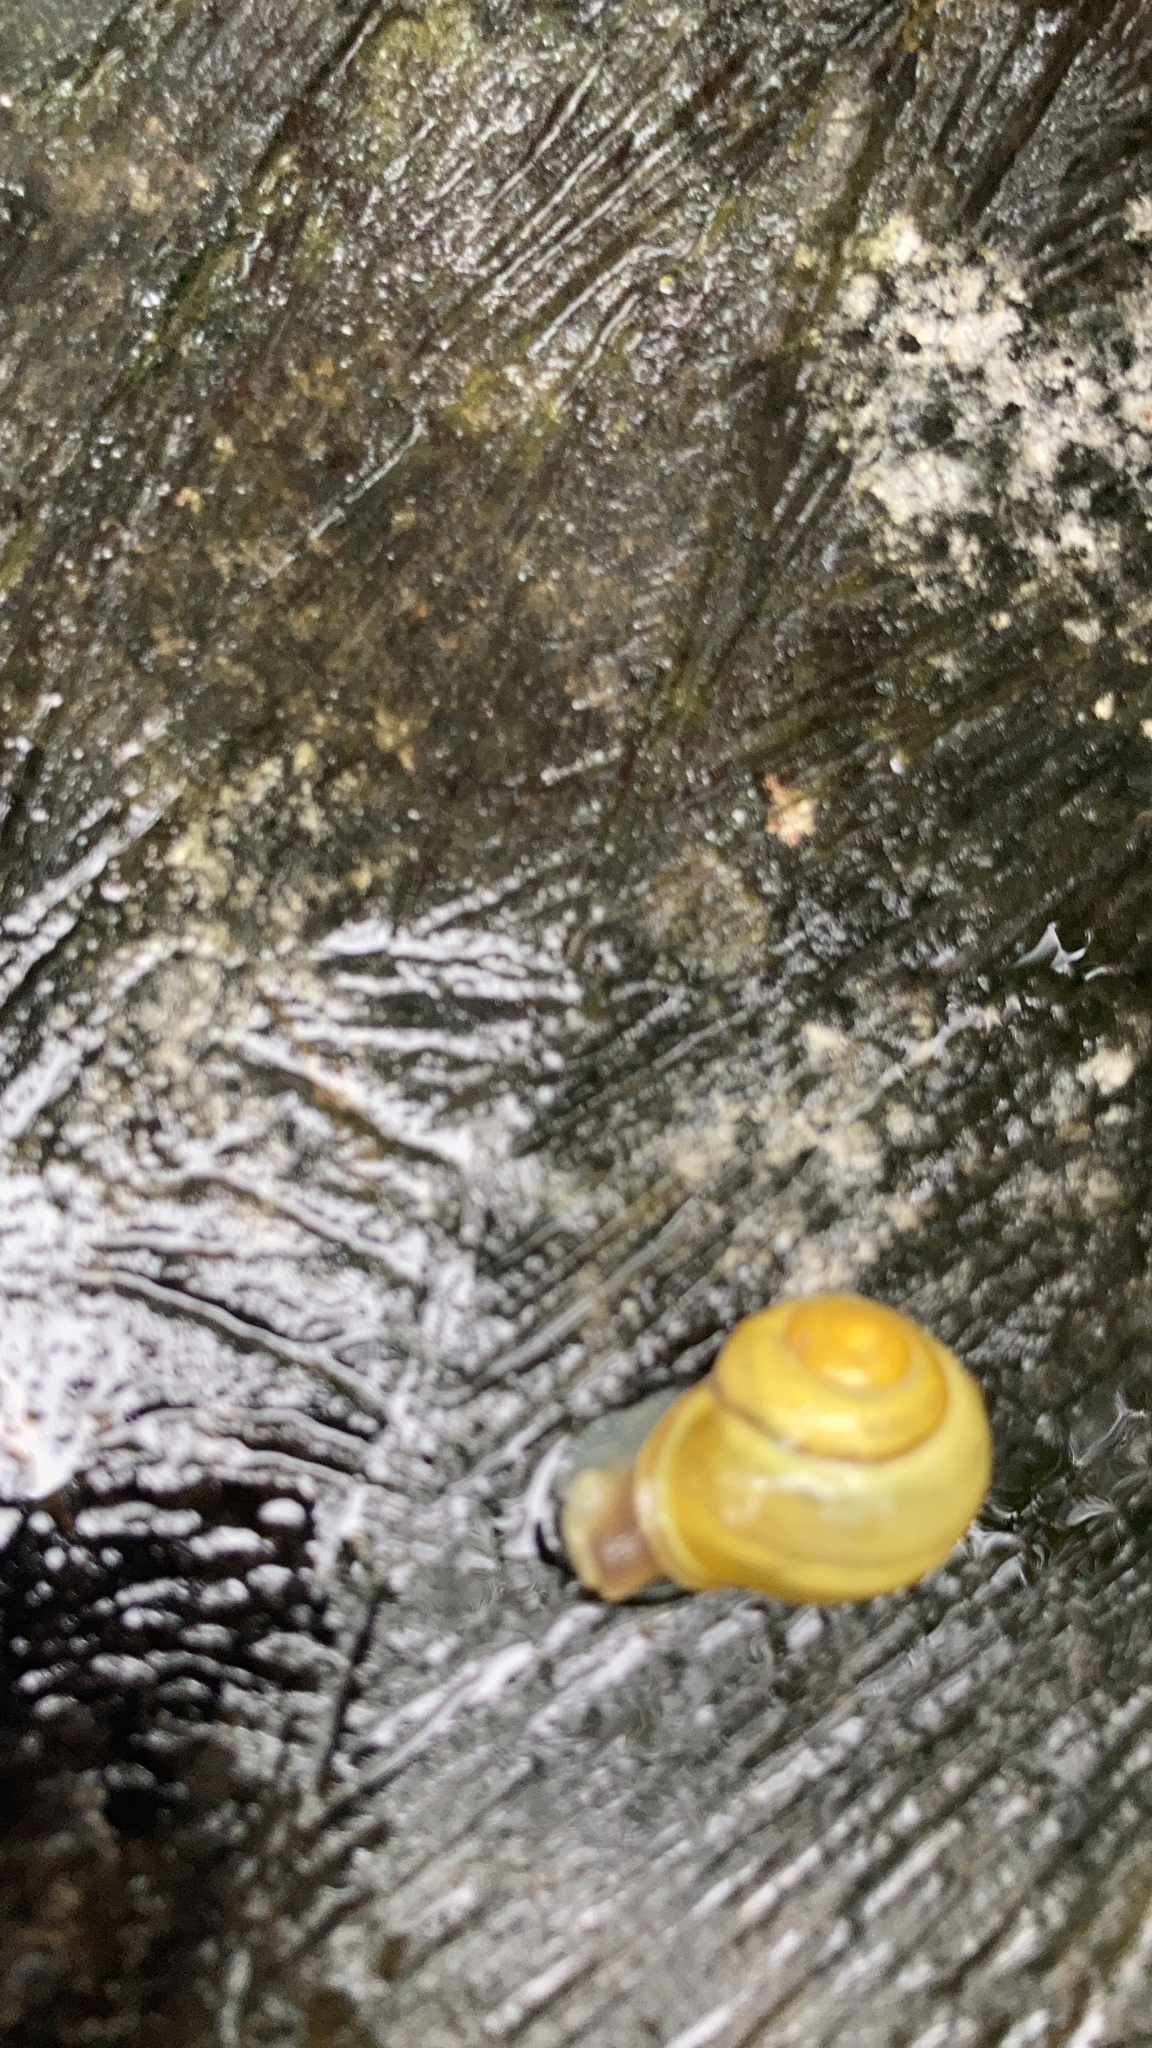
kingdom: Animalia
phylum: Mollusca
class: Gastropoda
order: Stylommatophora
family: Helicidae
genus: Cepaea
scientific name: Cepaea hortensis
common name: White-lip gardensnail
